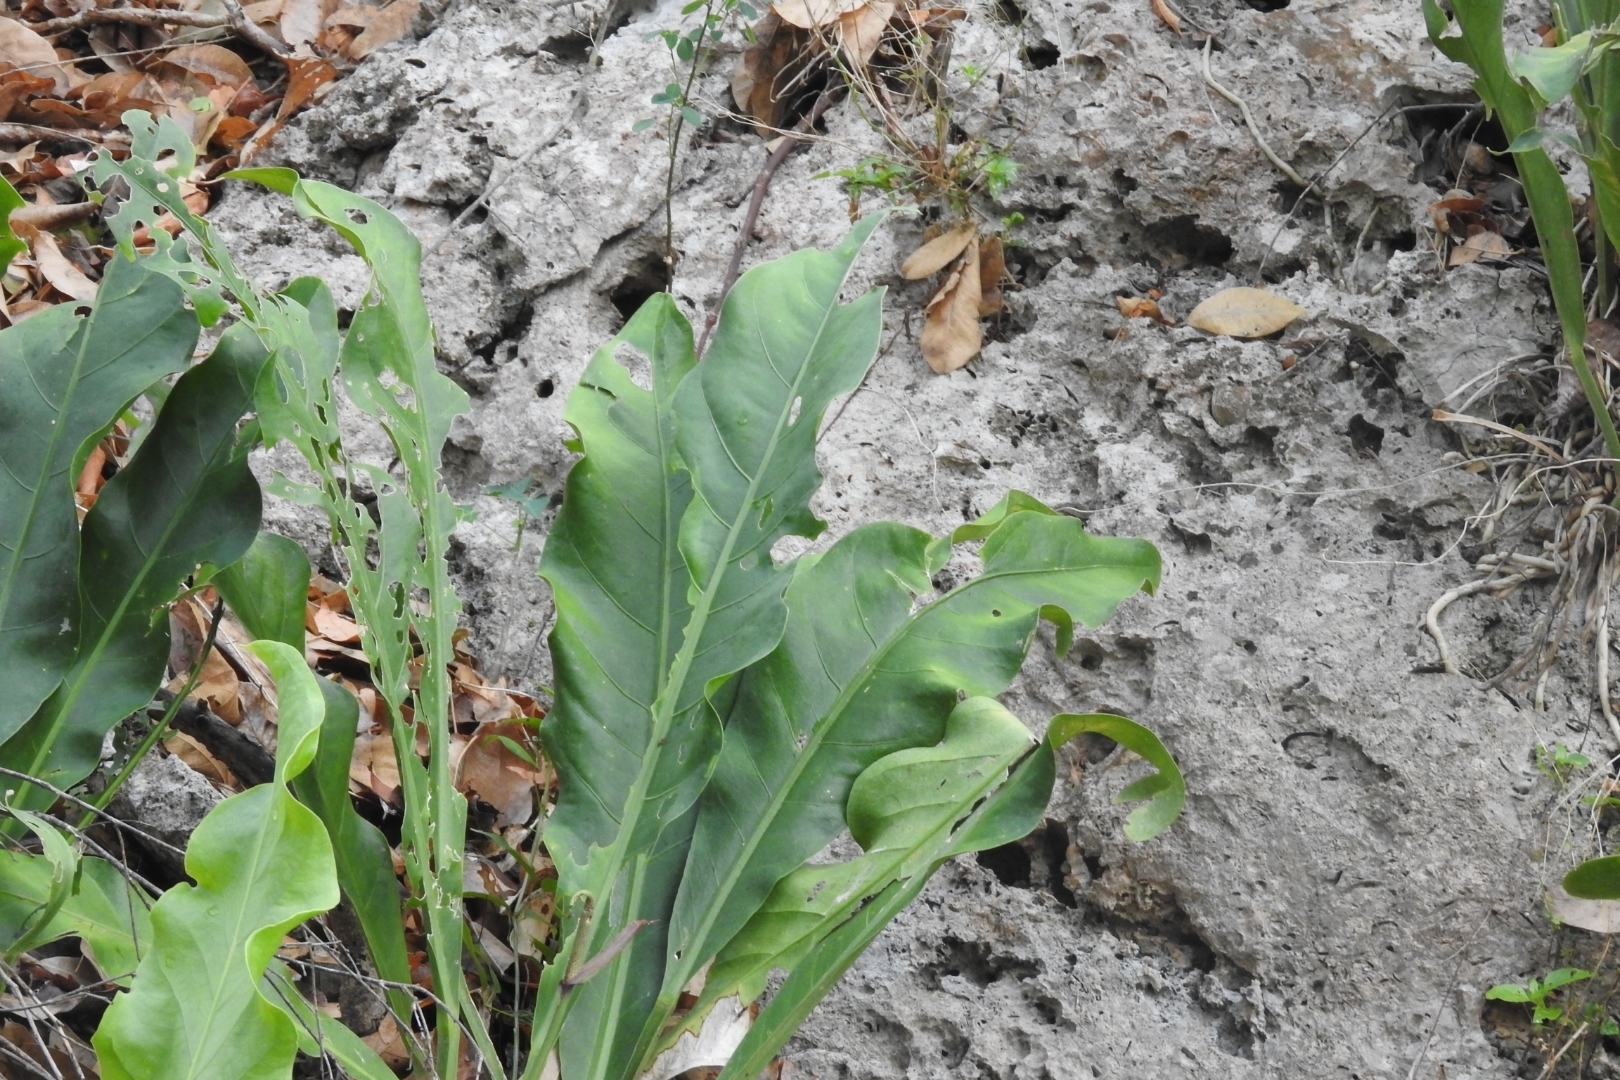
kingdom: Plantae
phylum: Tracheophyta
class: Liliopsida
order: Alismatales
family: Araceae
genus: Anthurium
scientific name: Anthurium schlechtendalii
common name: Laceleaf
